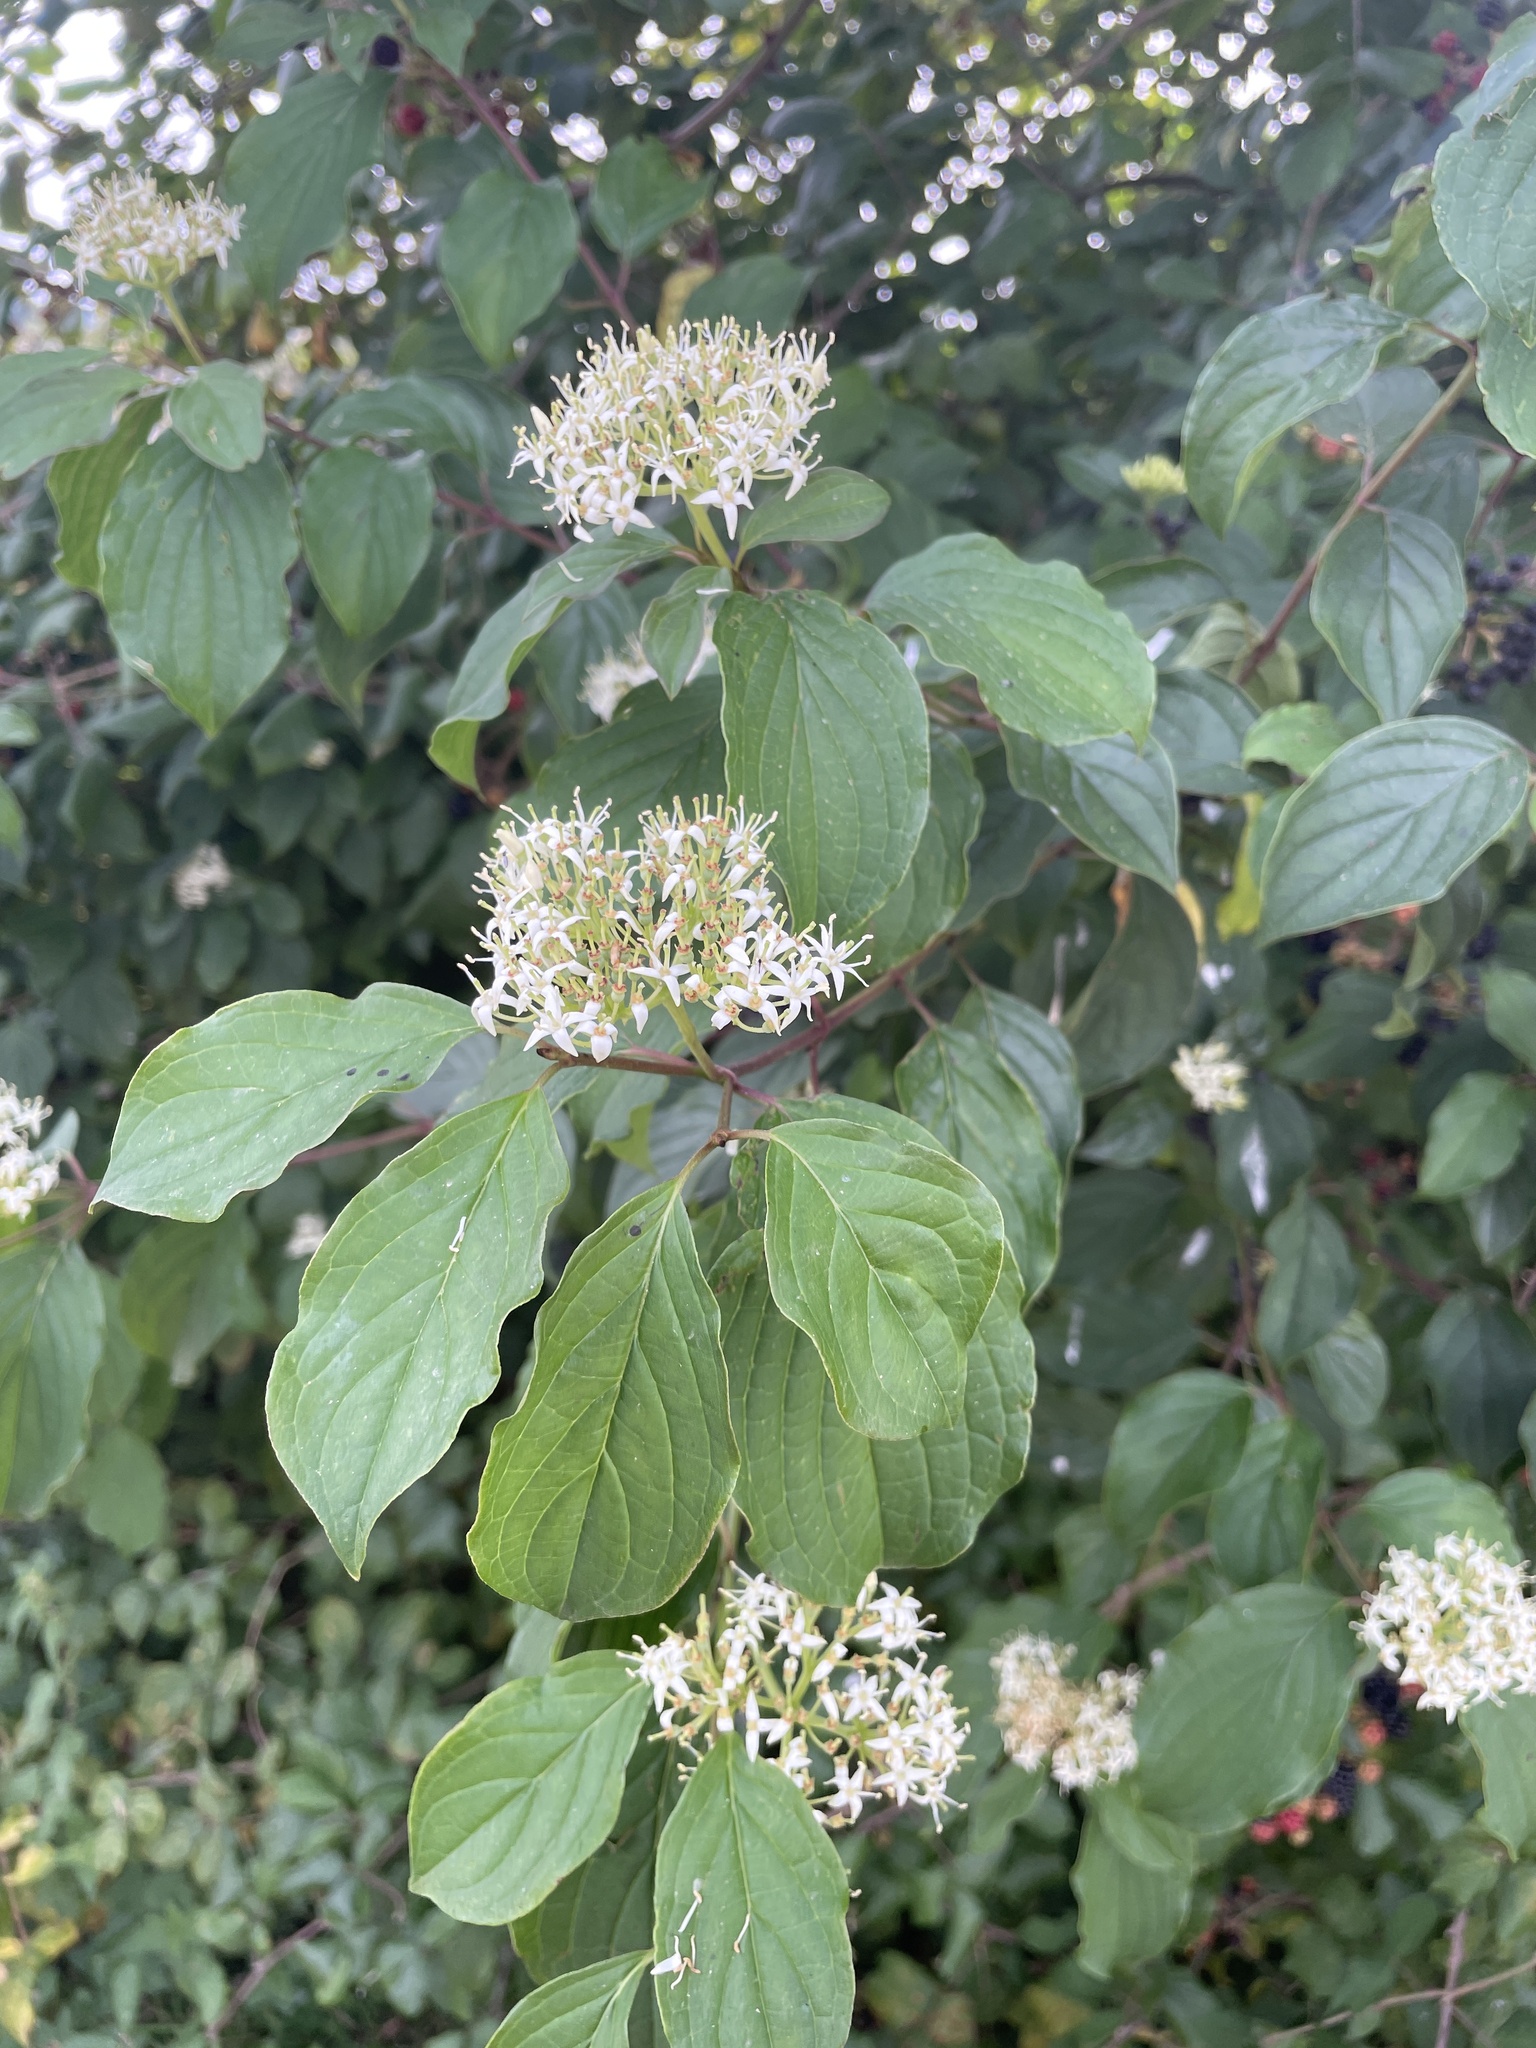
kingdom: Plantae
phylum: Tracheophyta
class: Magnoliopsida
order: Cornales
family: Cornaceae
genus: Cornus
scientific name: Cornus sanguinea
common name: Dogwood
